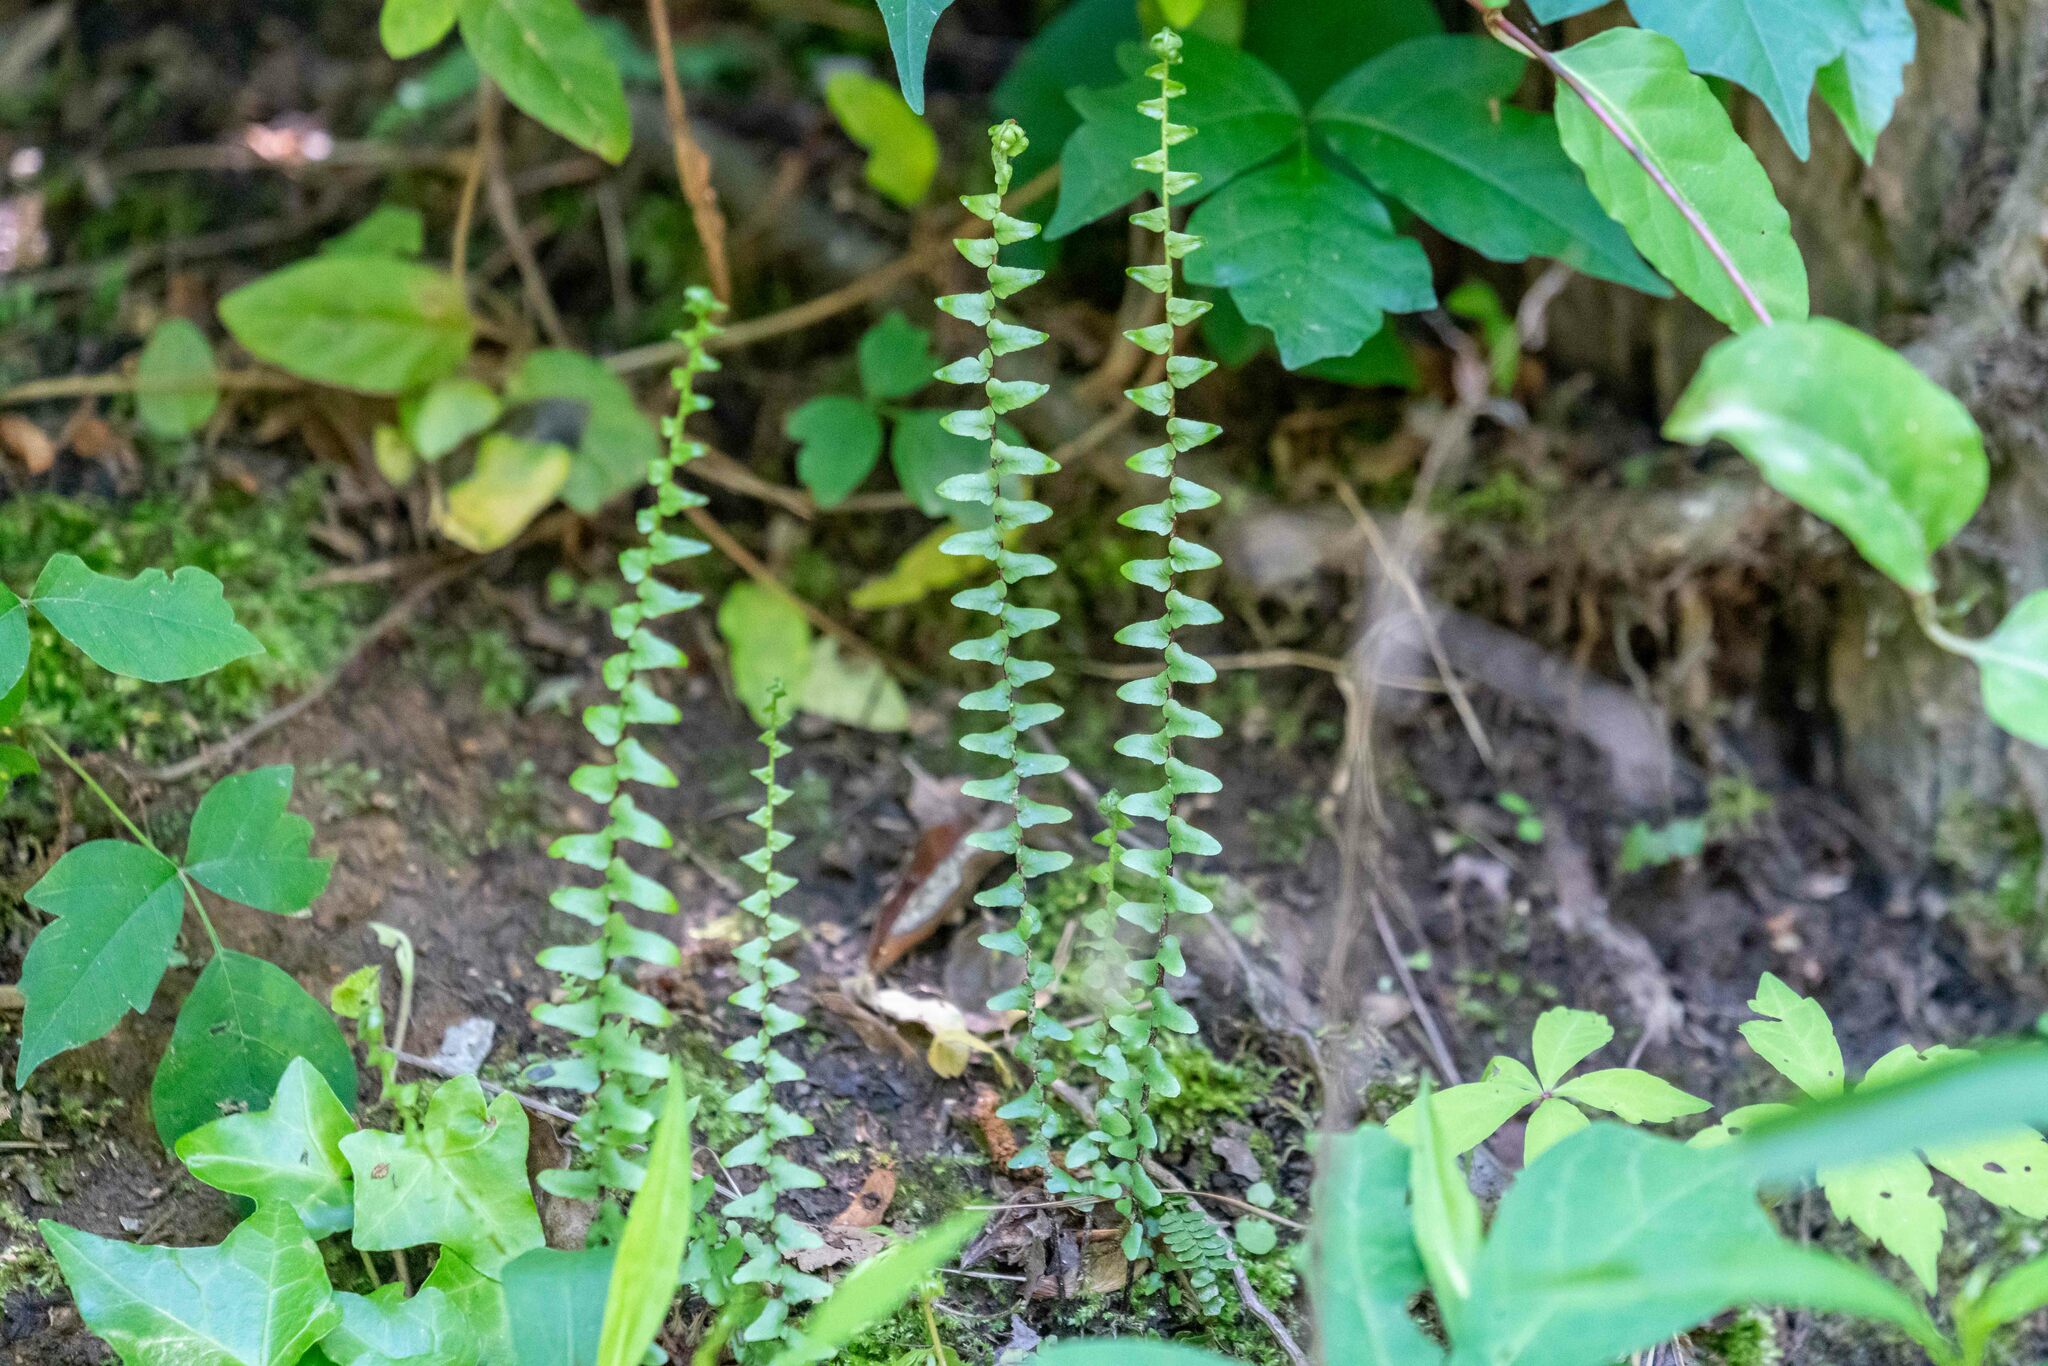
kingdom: Plantae
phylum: Tracheophyta
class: Polypodiopsida
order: Polypodiales
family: Aspleniaceae
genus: Asplenium
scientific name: Asplenium platyneuron
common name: Ebony spleenwort
